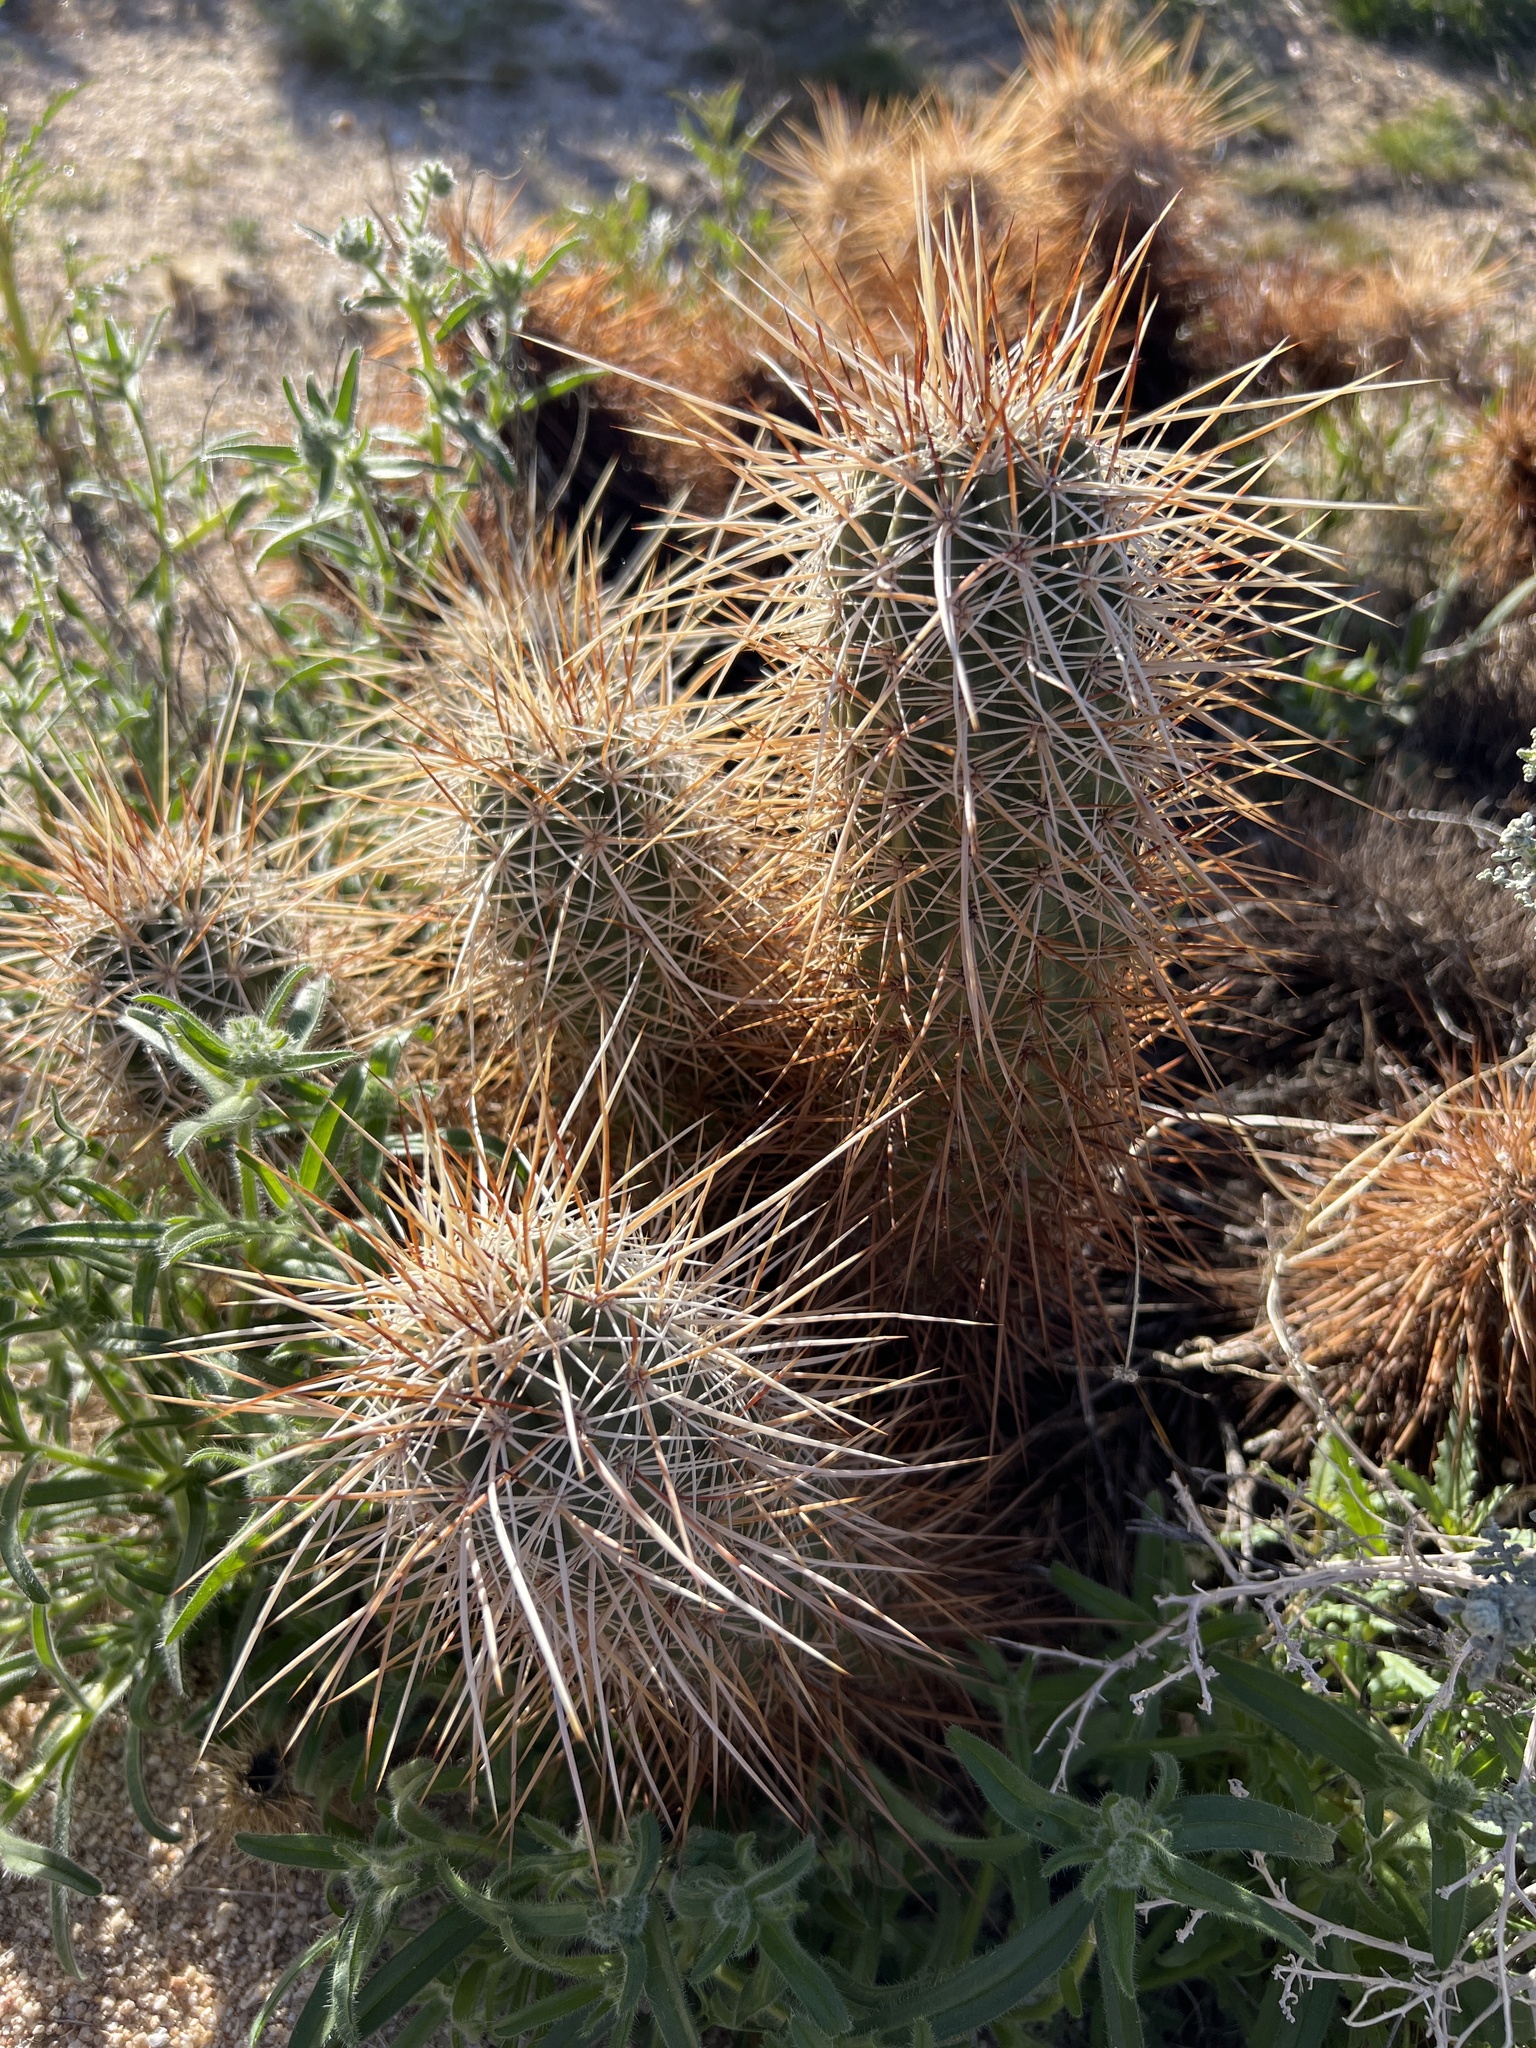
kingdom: Plantae
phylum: Tracheophyta
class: Magnoliopsida
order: Caryophyllales
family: Cactaceae
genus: Echinocereus
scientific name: Echinocereus engelmannii
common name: Engelmann's hedgehog cactus
